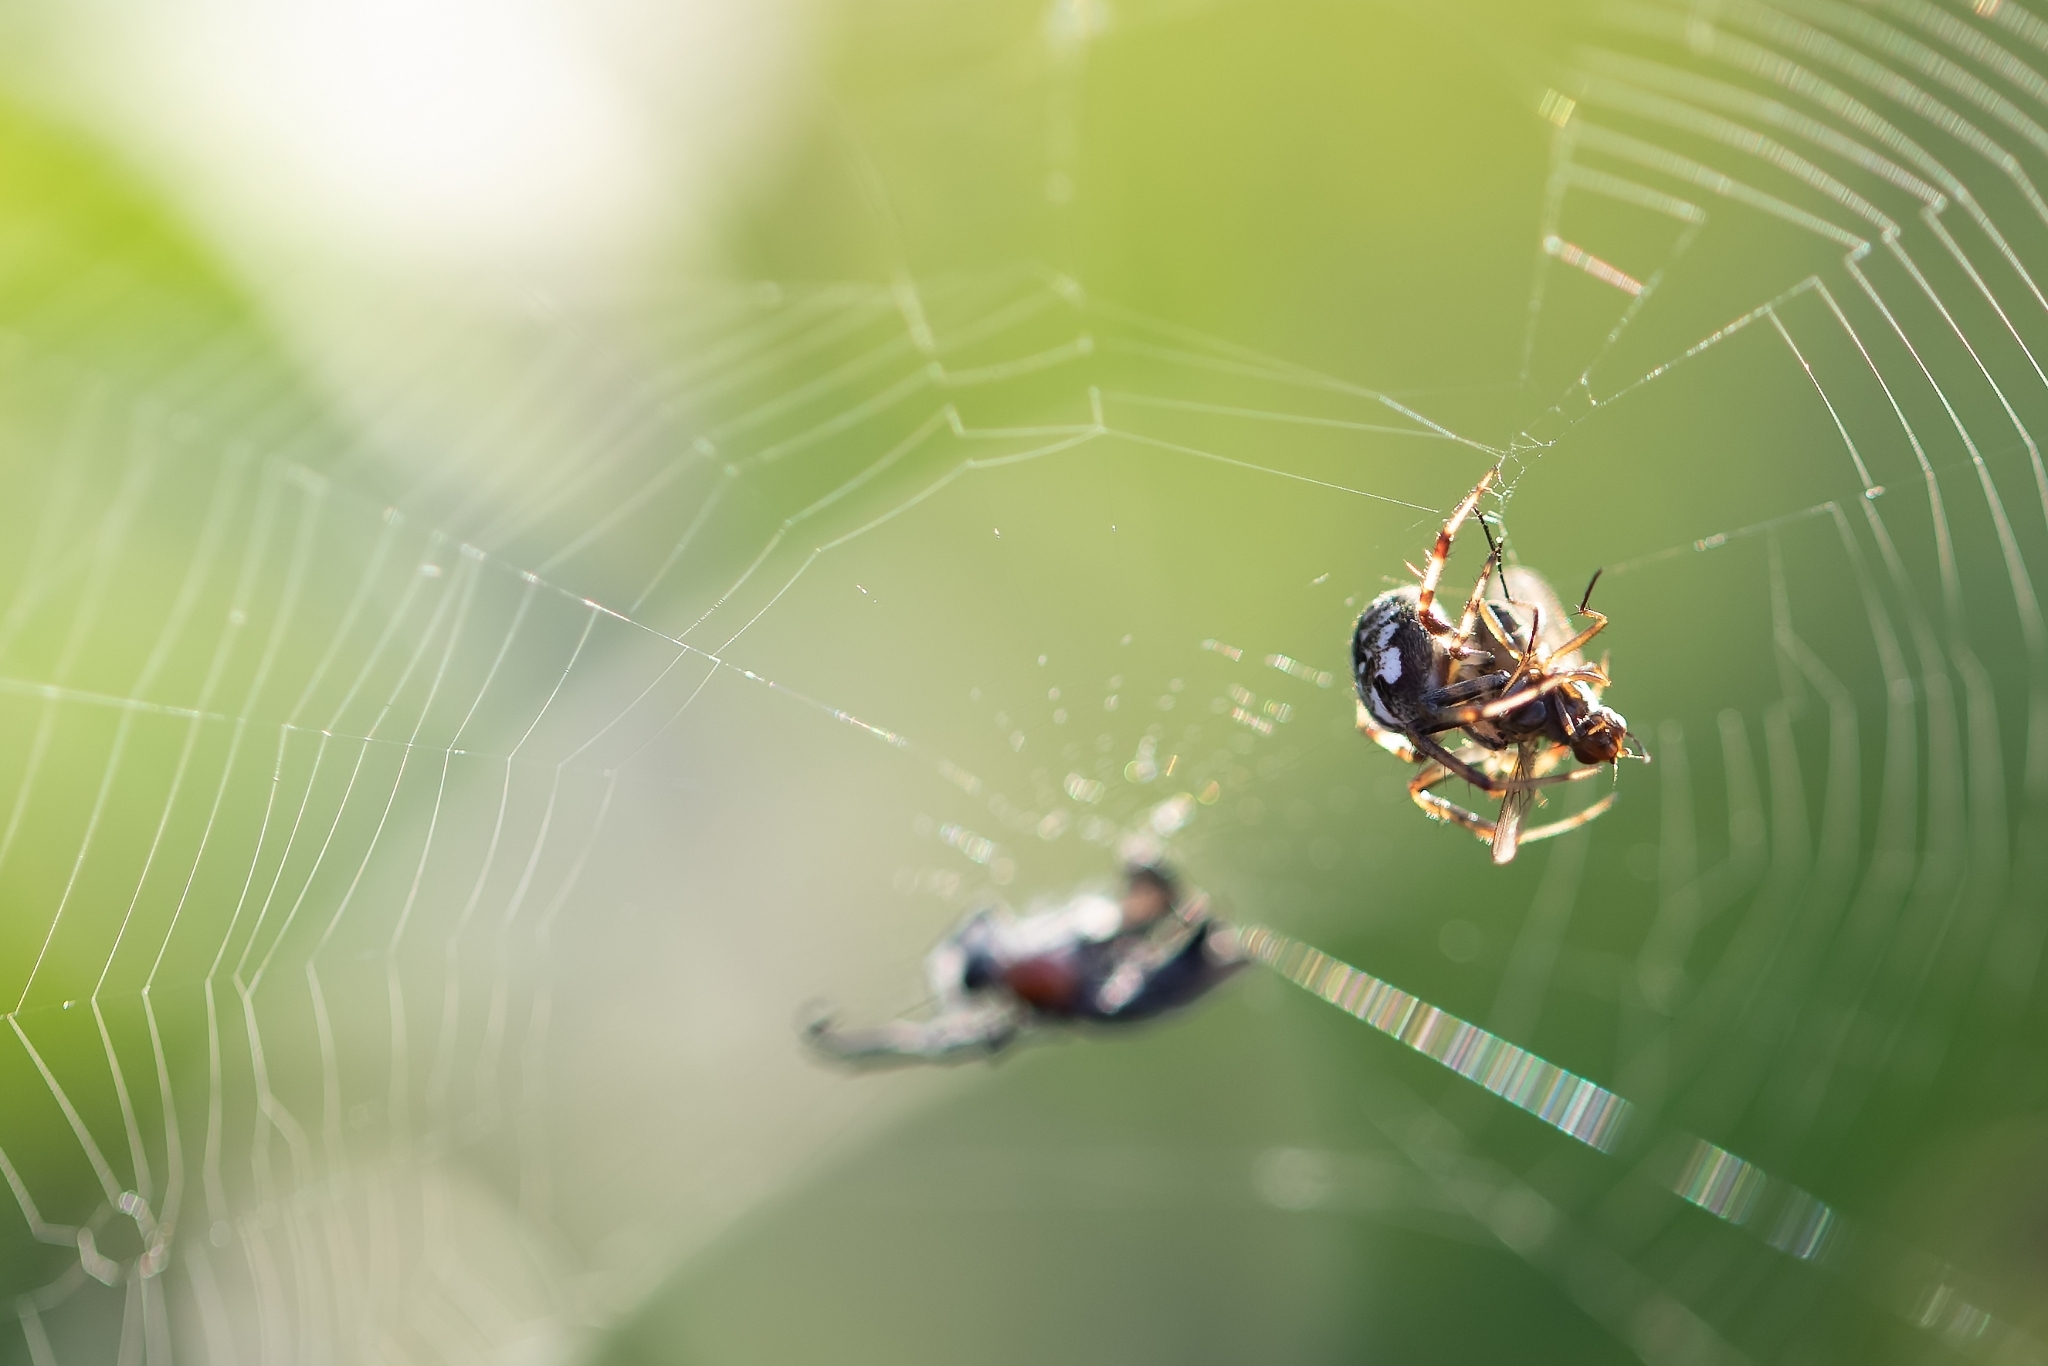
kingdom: Animalia
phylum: Arthropoda
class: Arachnida
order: Araneae
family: Araneidae
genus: Neoscona
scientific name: Neoscona arabesca
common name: Orb weavers
